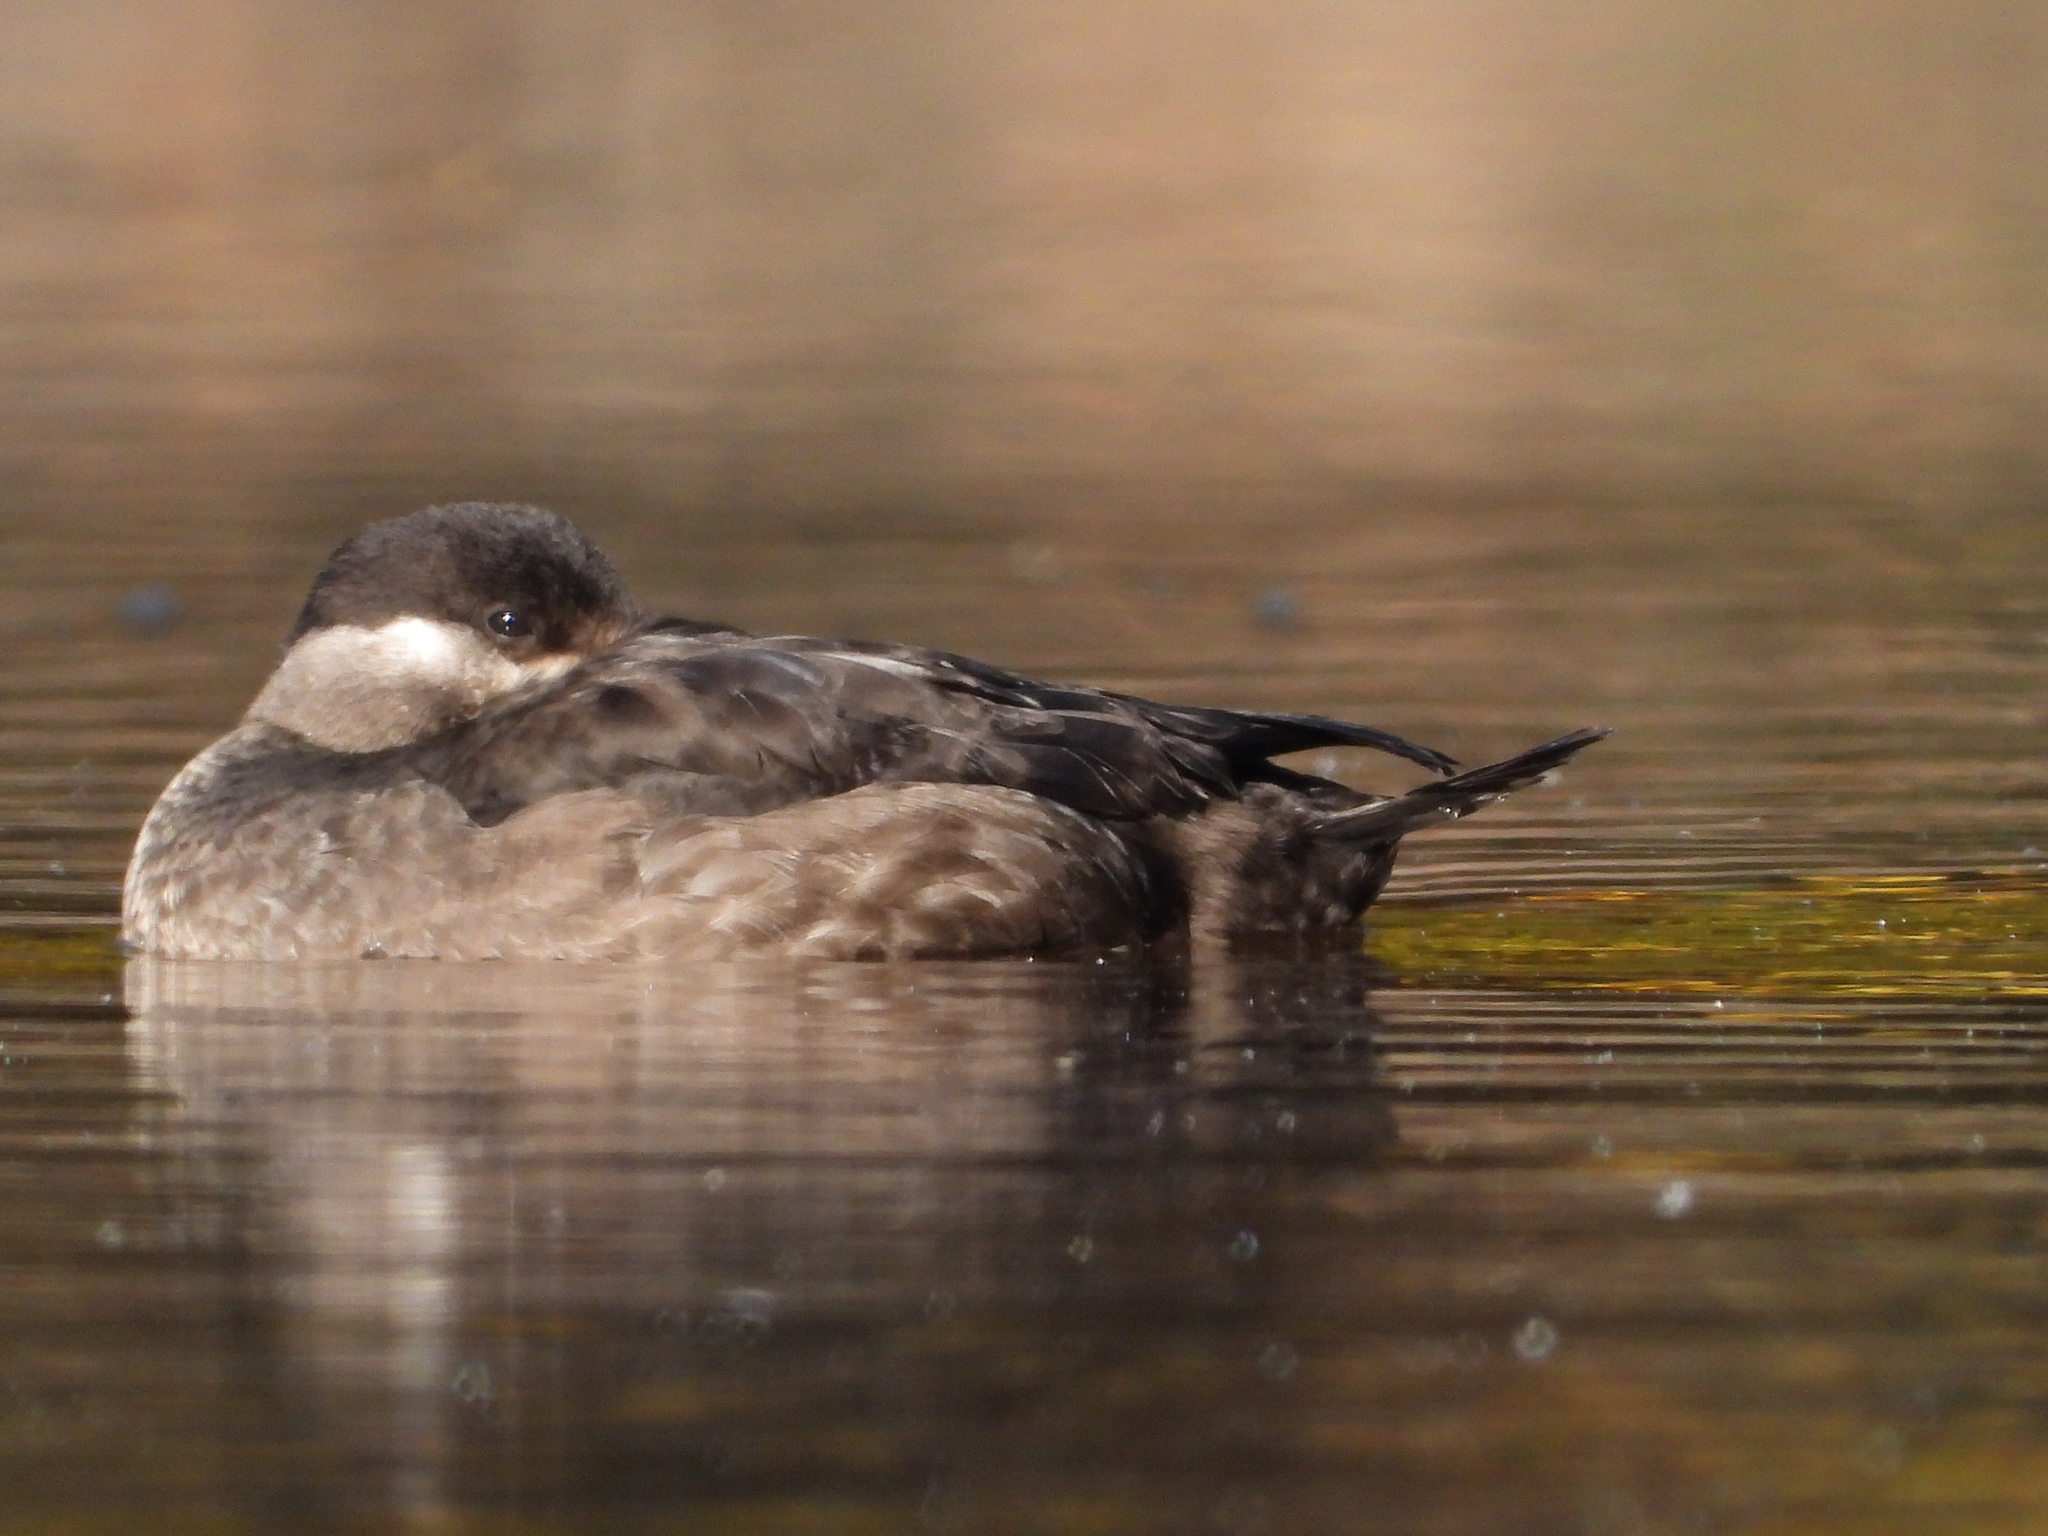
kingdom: Animalia
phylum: Chordata
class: Aves
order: Anseriformes
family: Anatidae
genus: Melanitta
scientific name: Melanitta perspicillata
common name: Surf scoter
